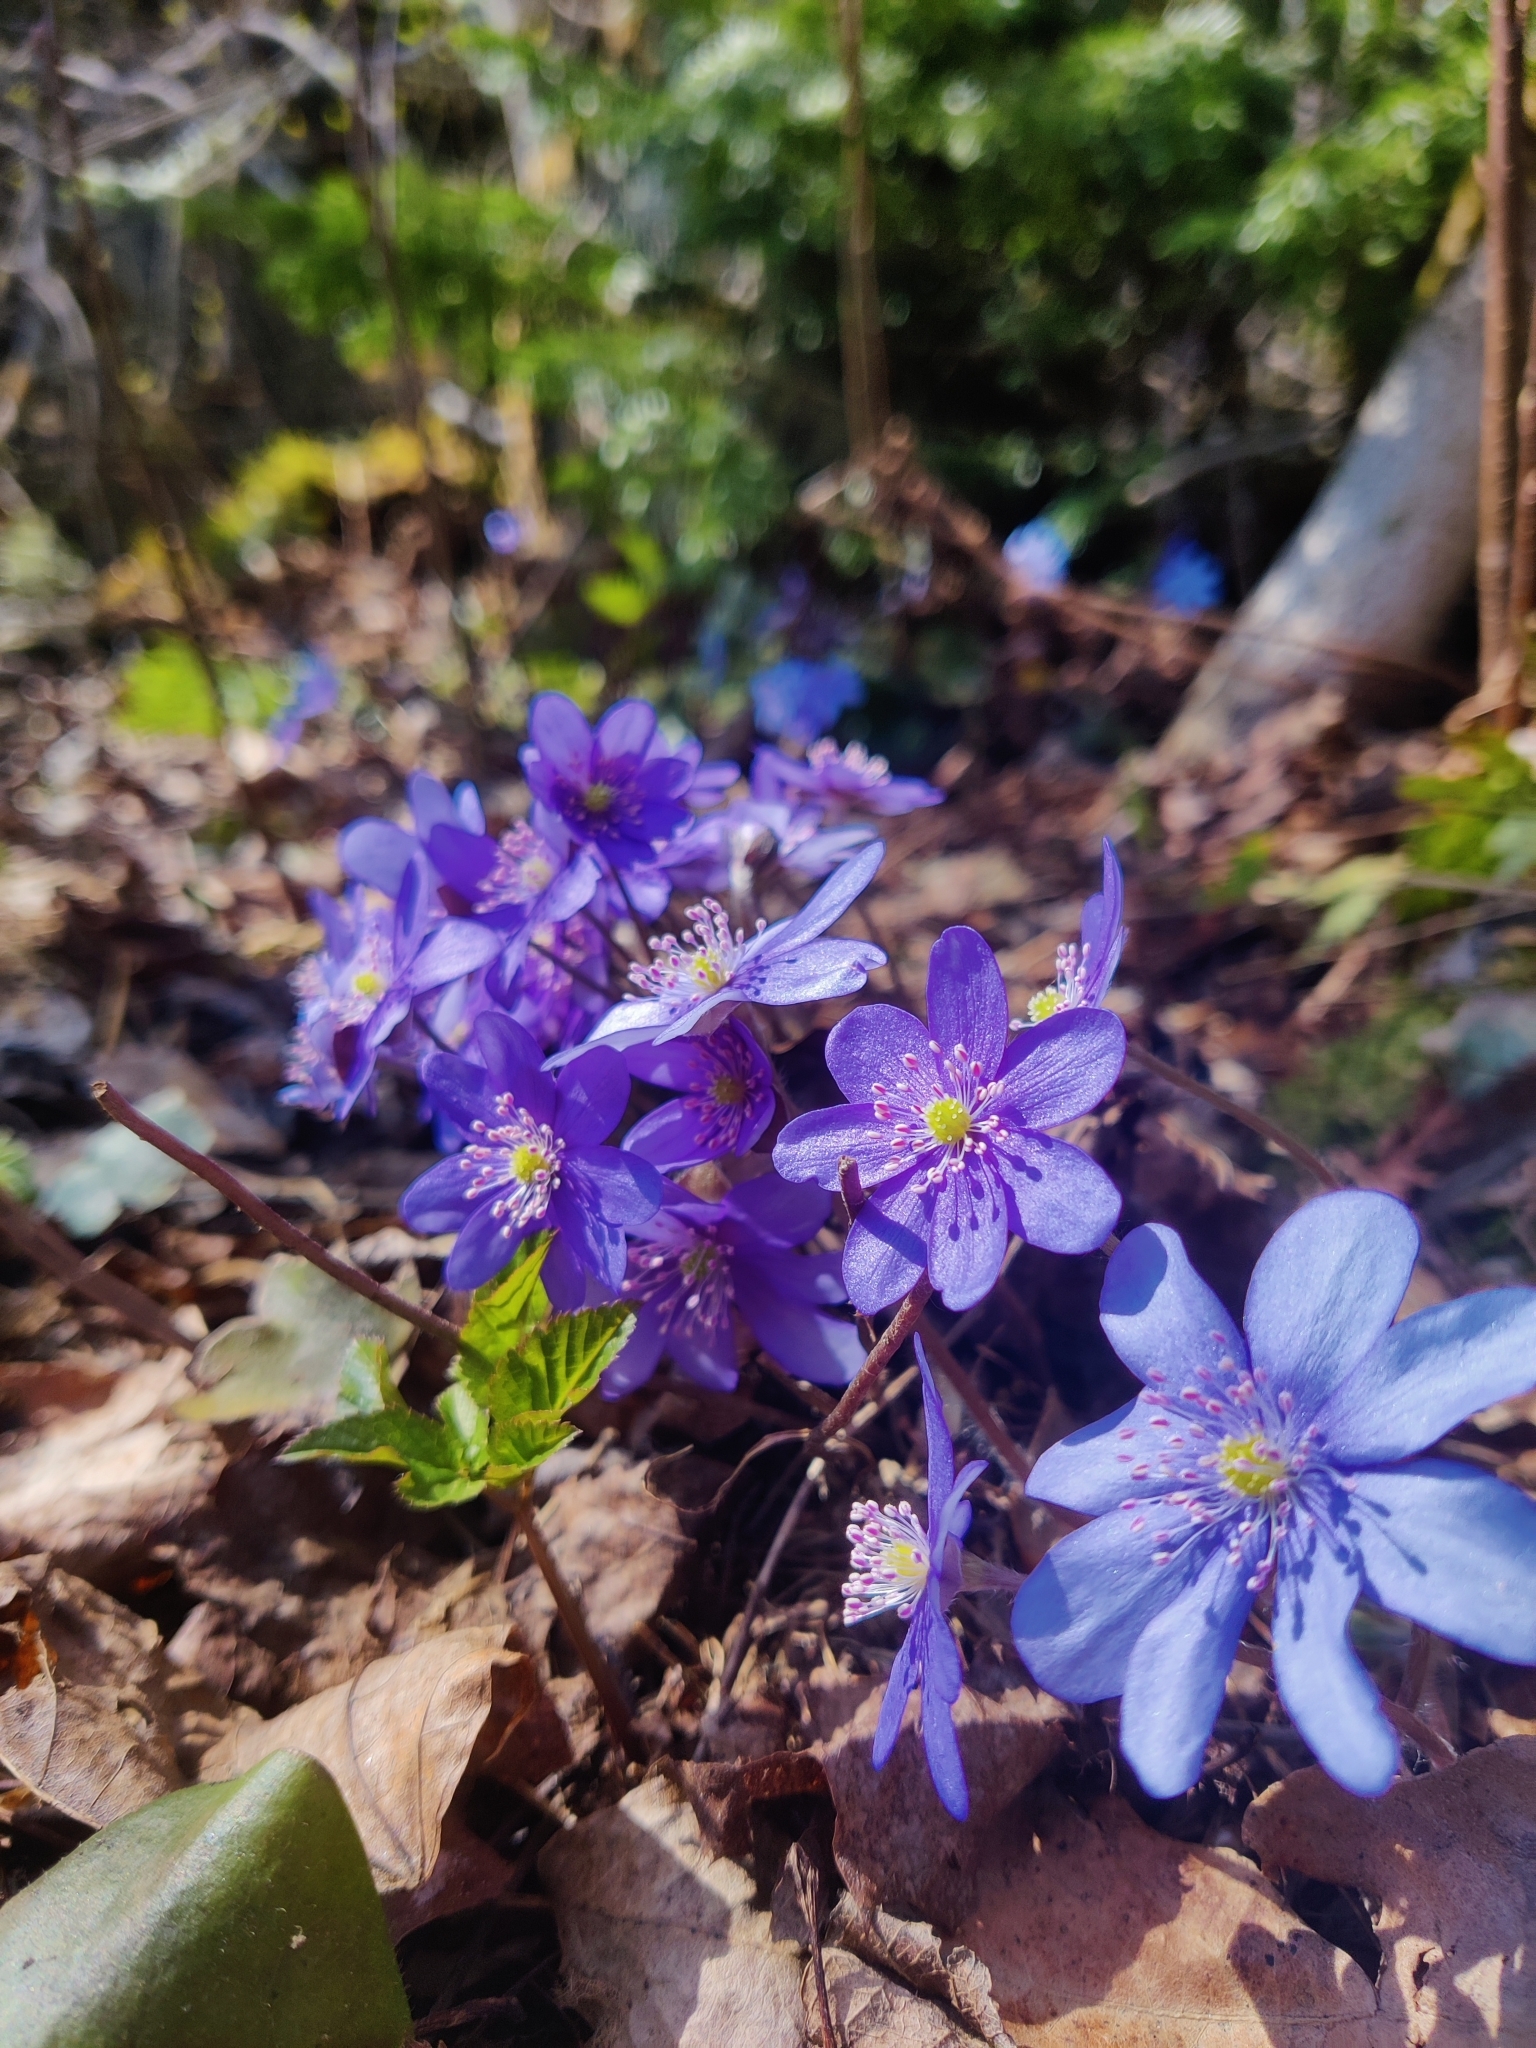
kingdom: Plantae
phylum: Tracheophyta
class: Magnoliopsida
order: Ranunculales
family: Ranunculaceae
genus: Hepatica
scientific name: Hepatica nobilis
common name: Liverleaf
